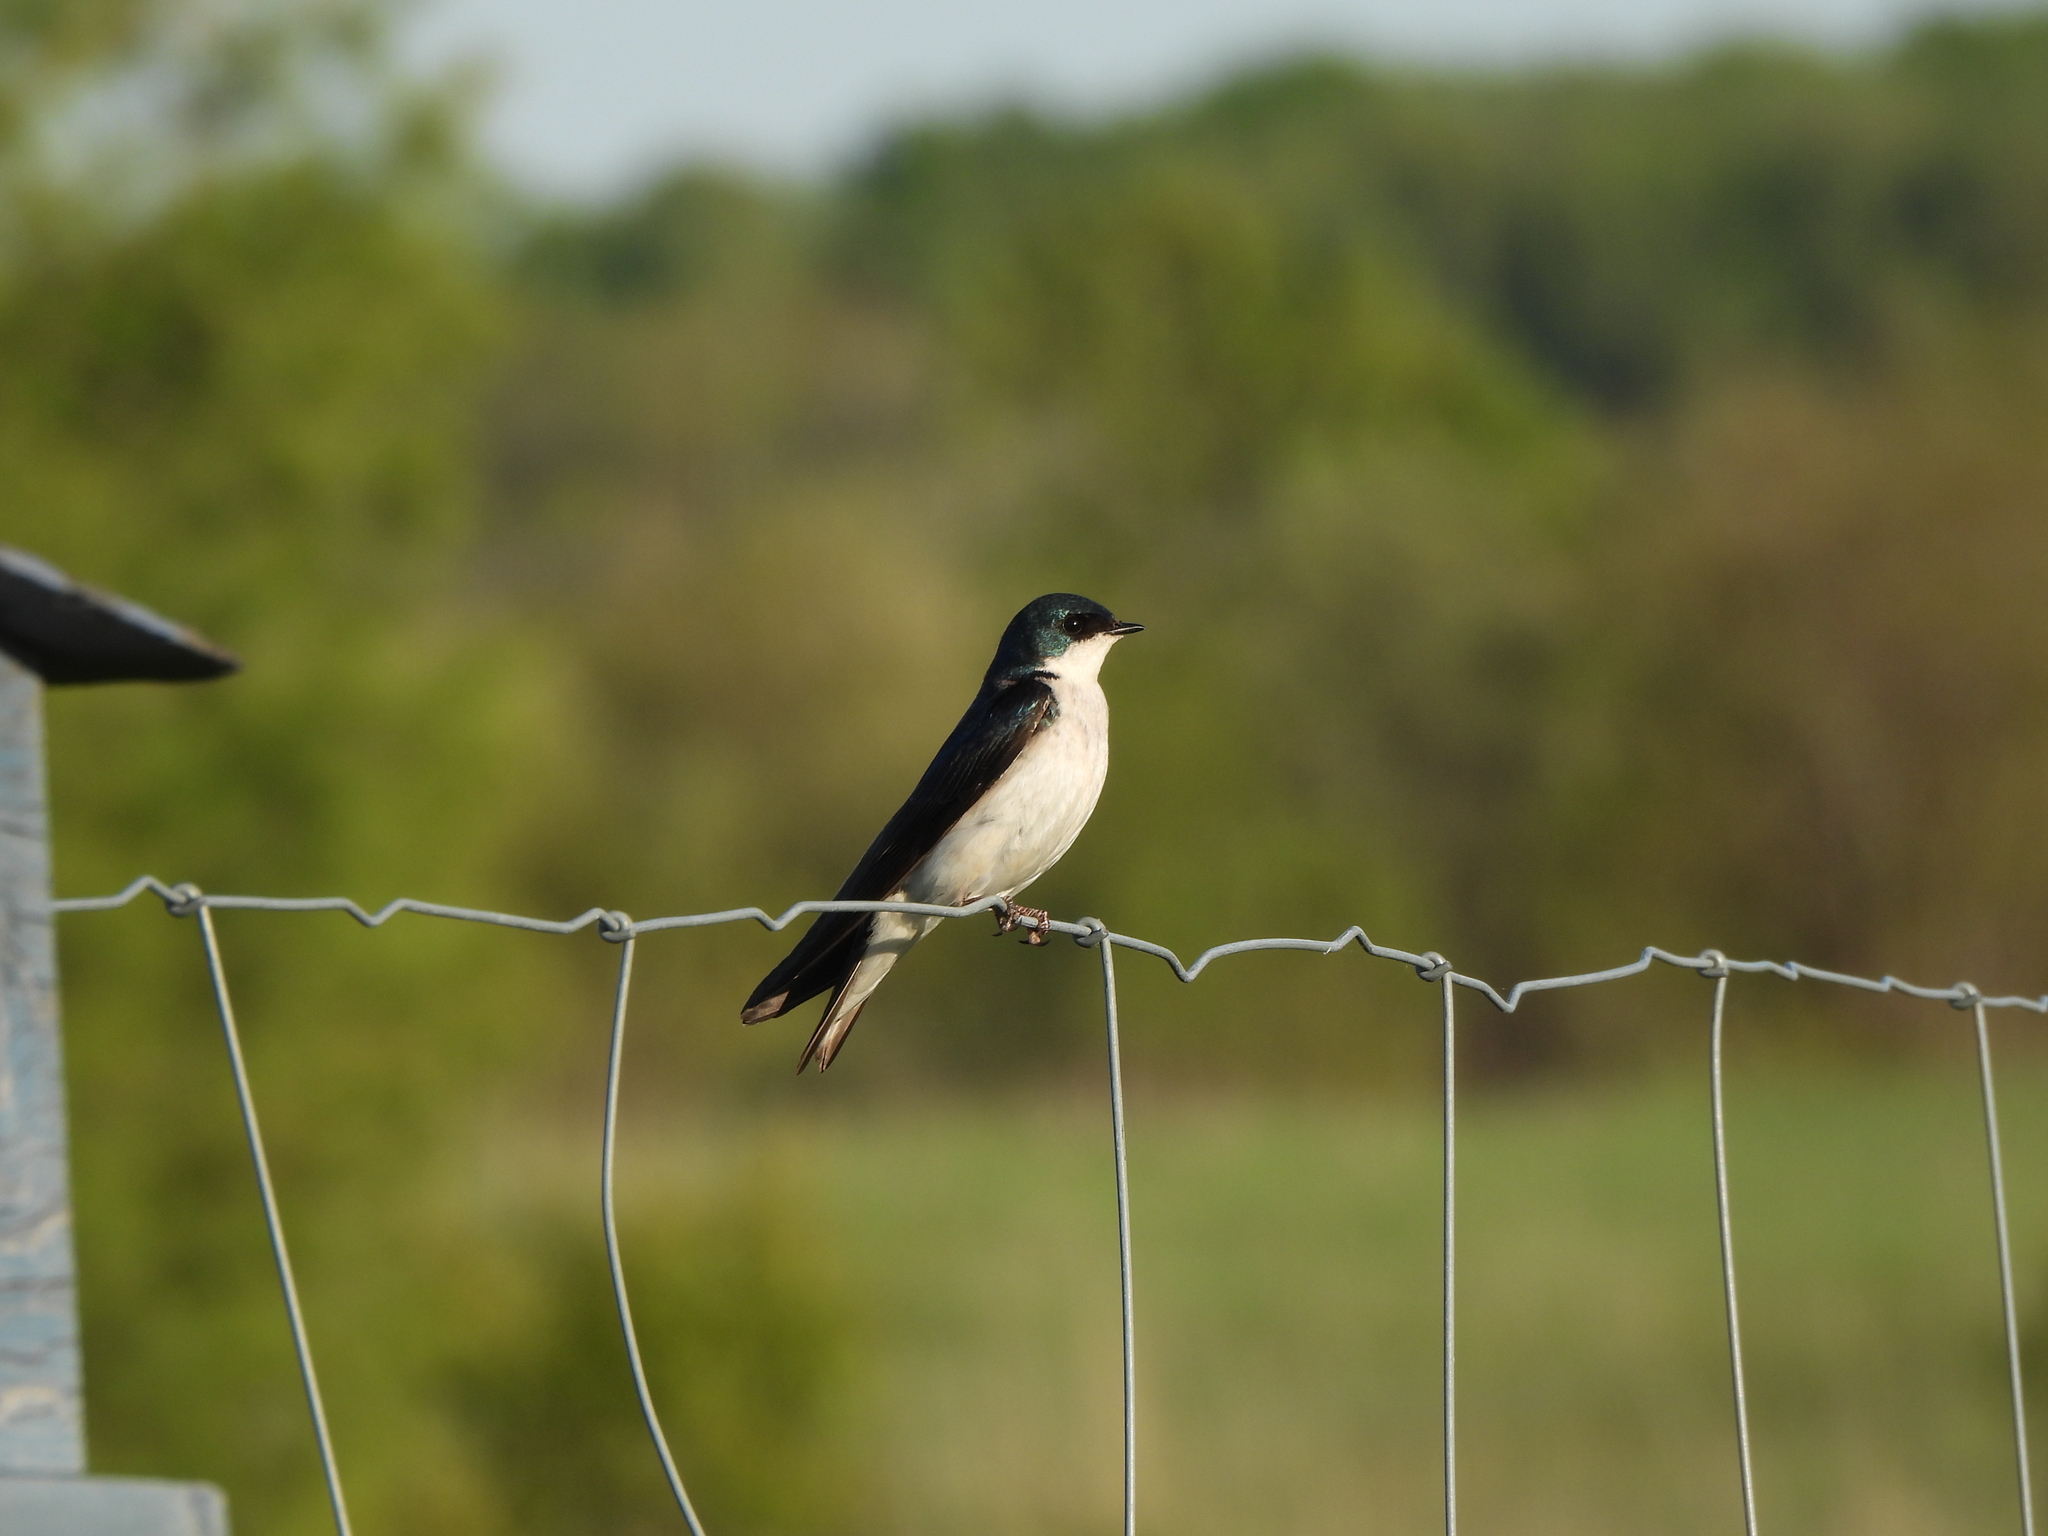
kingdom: Animalia
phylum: Chordata
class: Aves
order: Passeriformes
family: Hirundinidae
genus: Tachycineta
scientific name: Tachycineta bicolor
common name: Tree swallow
